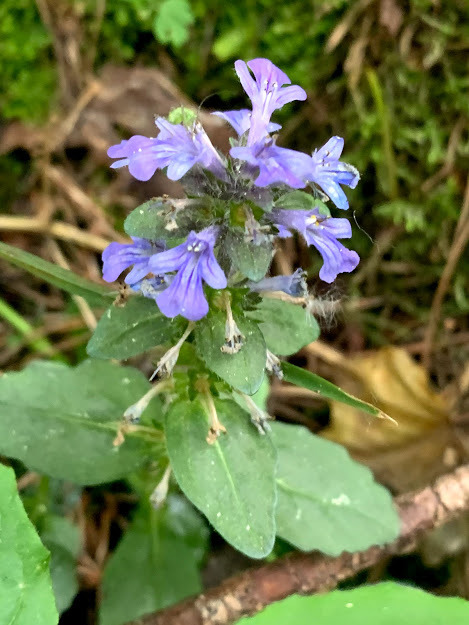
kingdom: Plantae
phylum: Tracheophyta
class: Magnoliopsida
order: Lamiales
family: Lamiaceae
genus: Ajuga
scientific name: Ajuga reptans
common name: Bugle
